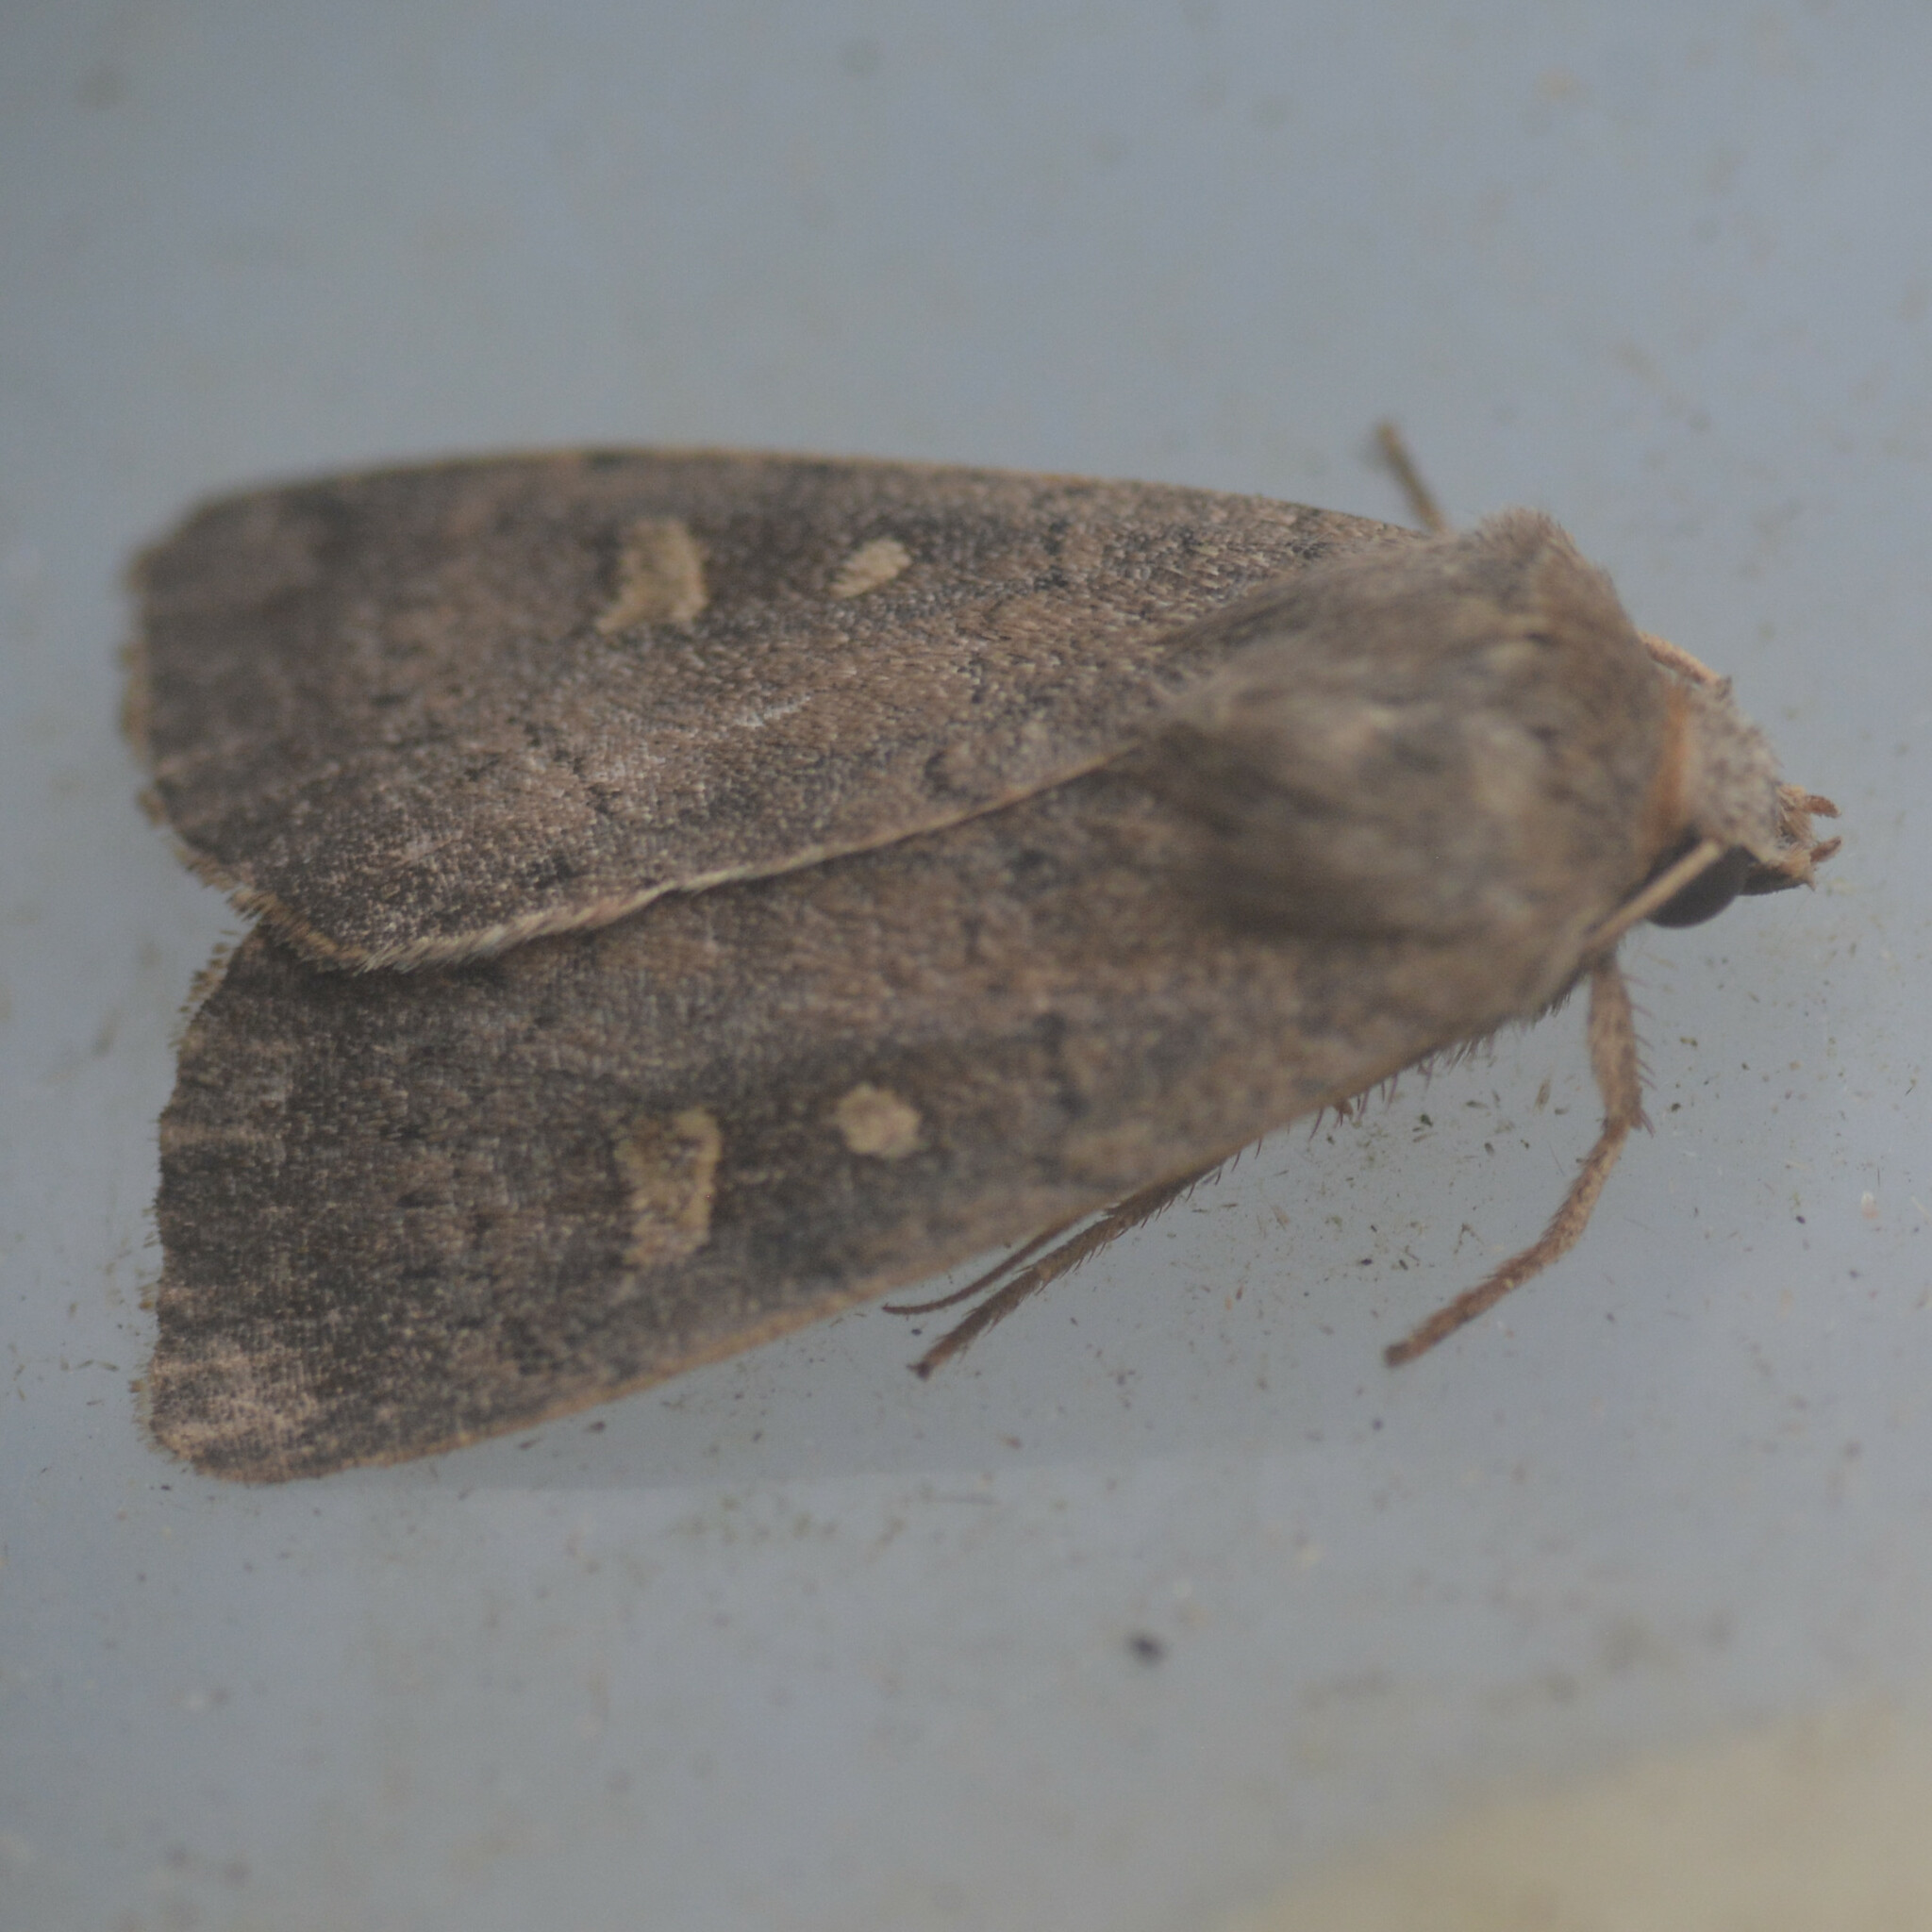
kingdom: Animalia
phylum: Arthropoda
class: Insecta
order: Lepidoptera
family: Noctuidae
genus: Xestia
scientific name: Xestia xanthographa
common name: Square-spot rustic
